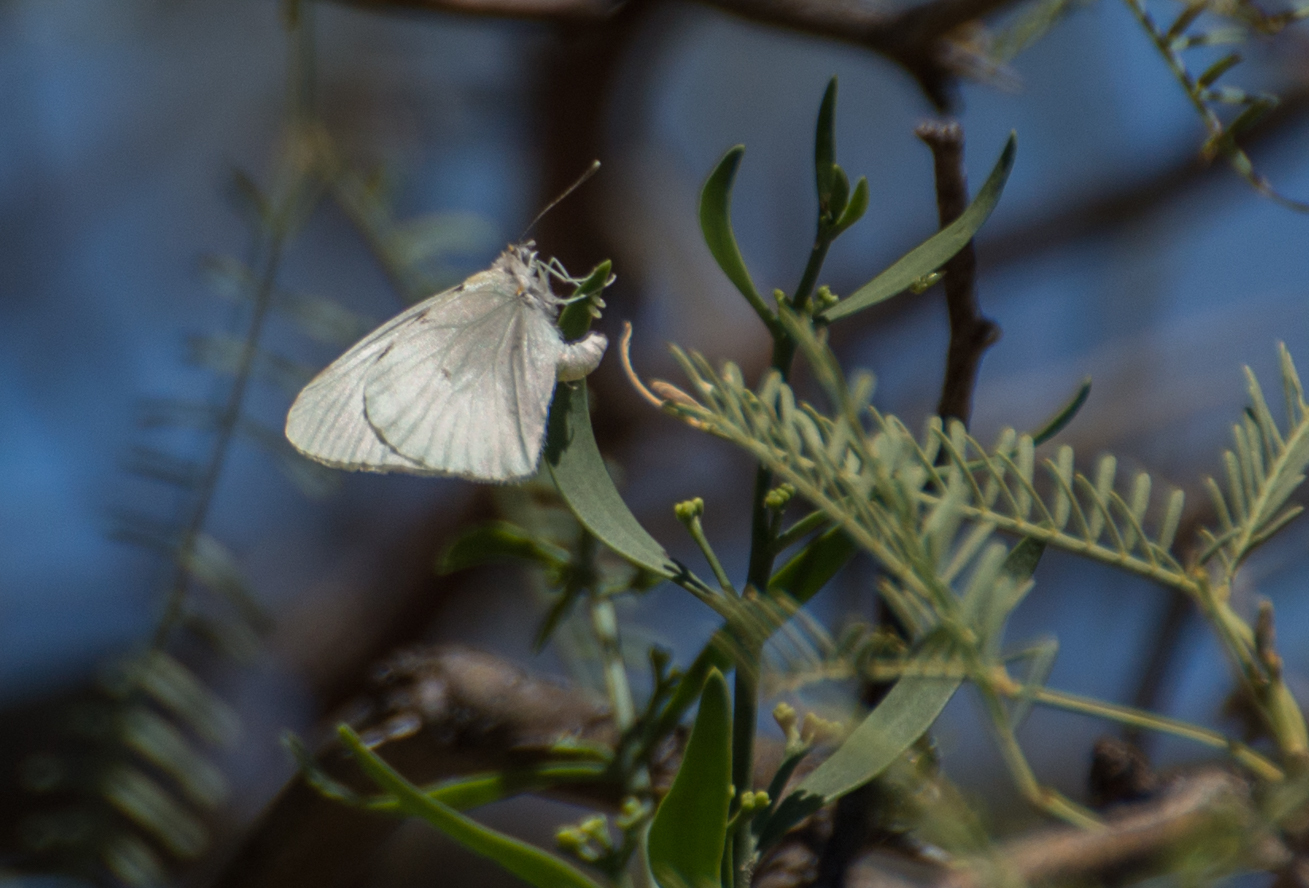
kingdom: Animalia
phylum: Arthropoda
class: Insecta
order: Lepidoptera
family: Pieridae
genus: Hesperocharis
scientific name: Hesperocharis
